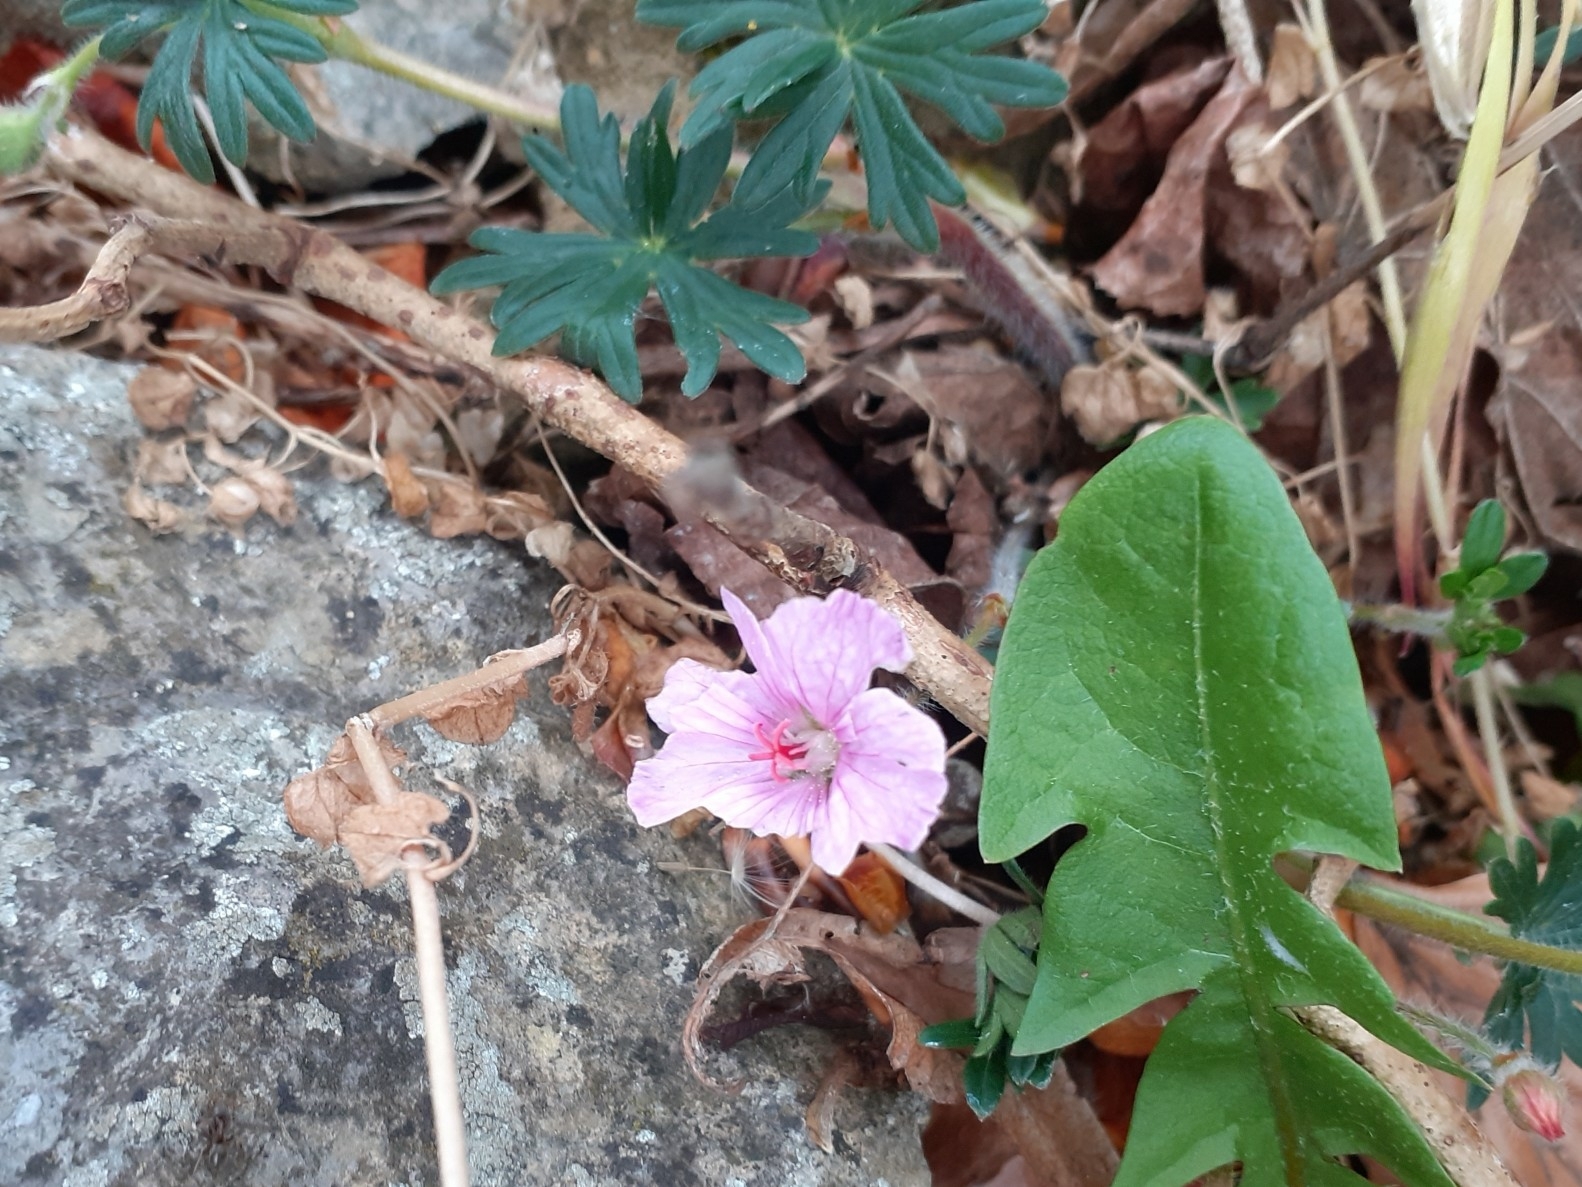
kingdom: Plantae
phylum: Tracheophyta
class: Magnoliopsida
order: Geraniales
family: Geraniaceae
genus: Geranium
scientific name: Geranium sanguineum
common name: Bloody crane's-bill
